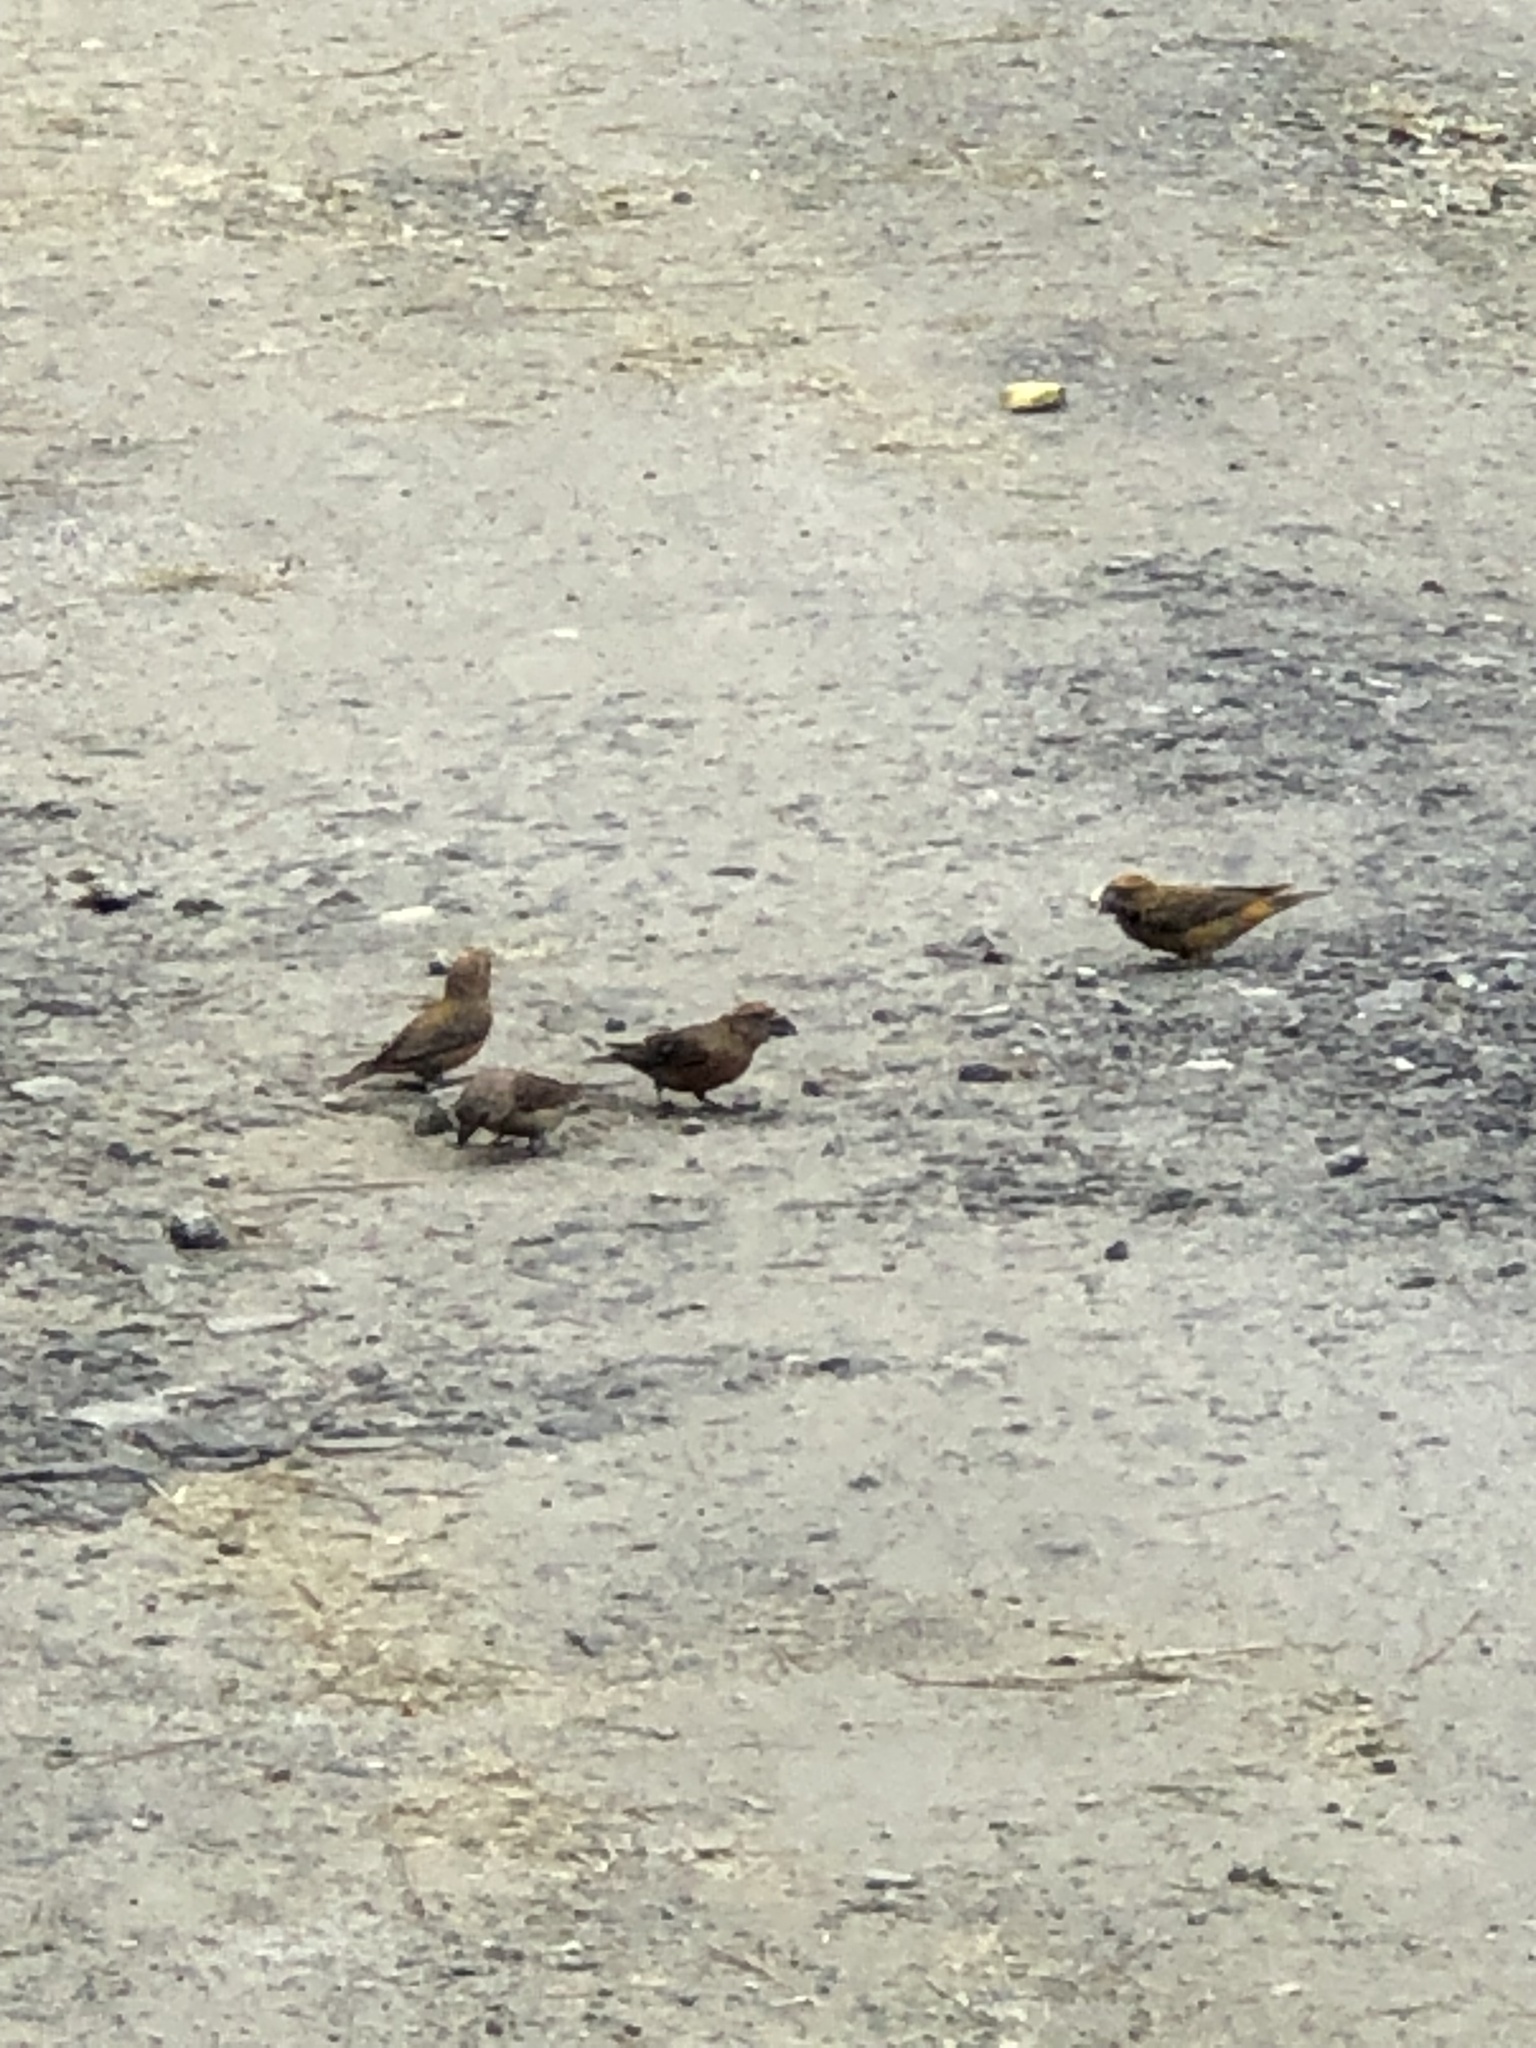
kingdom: Animalia
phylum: Chordata
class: Aves
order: Passeriformes
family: Fringillidae
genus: Loxia
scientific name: Loxia curvirostra
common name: Red crossbill
